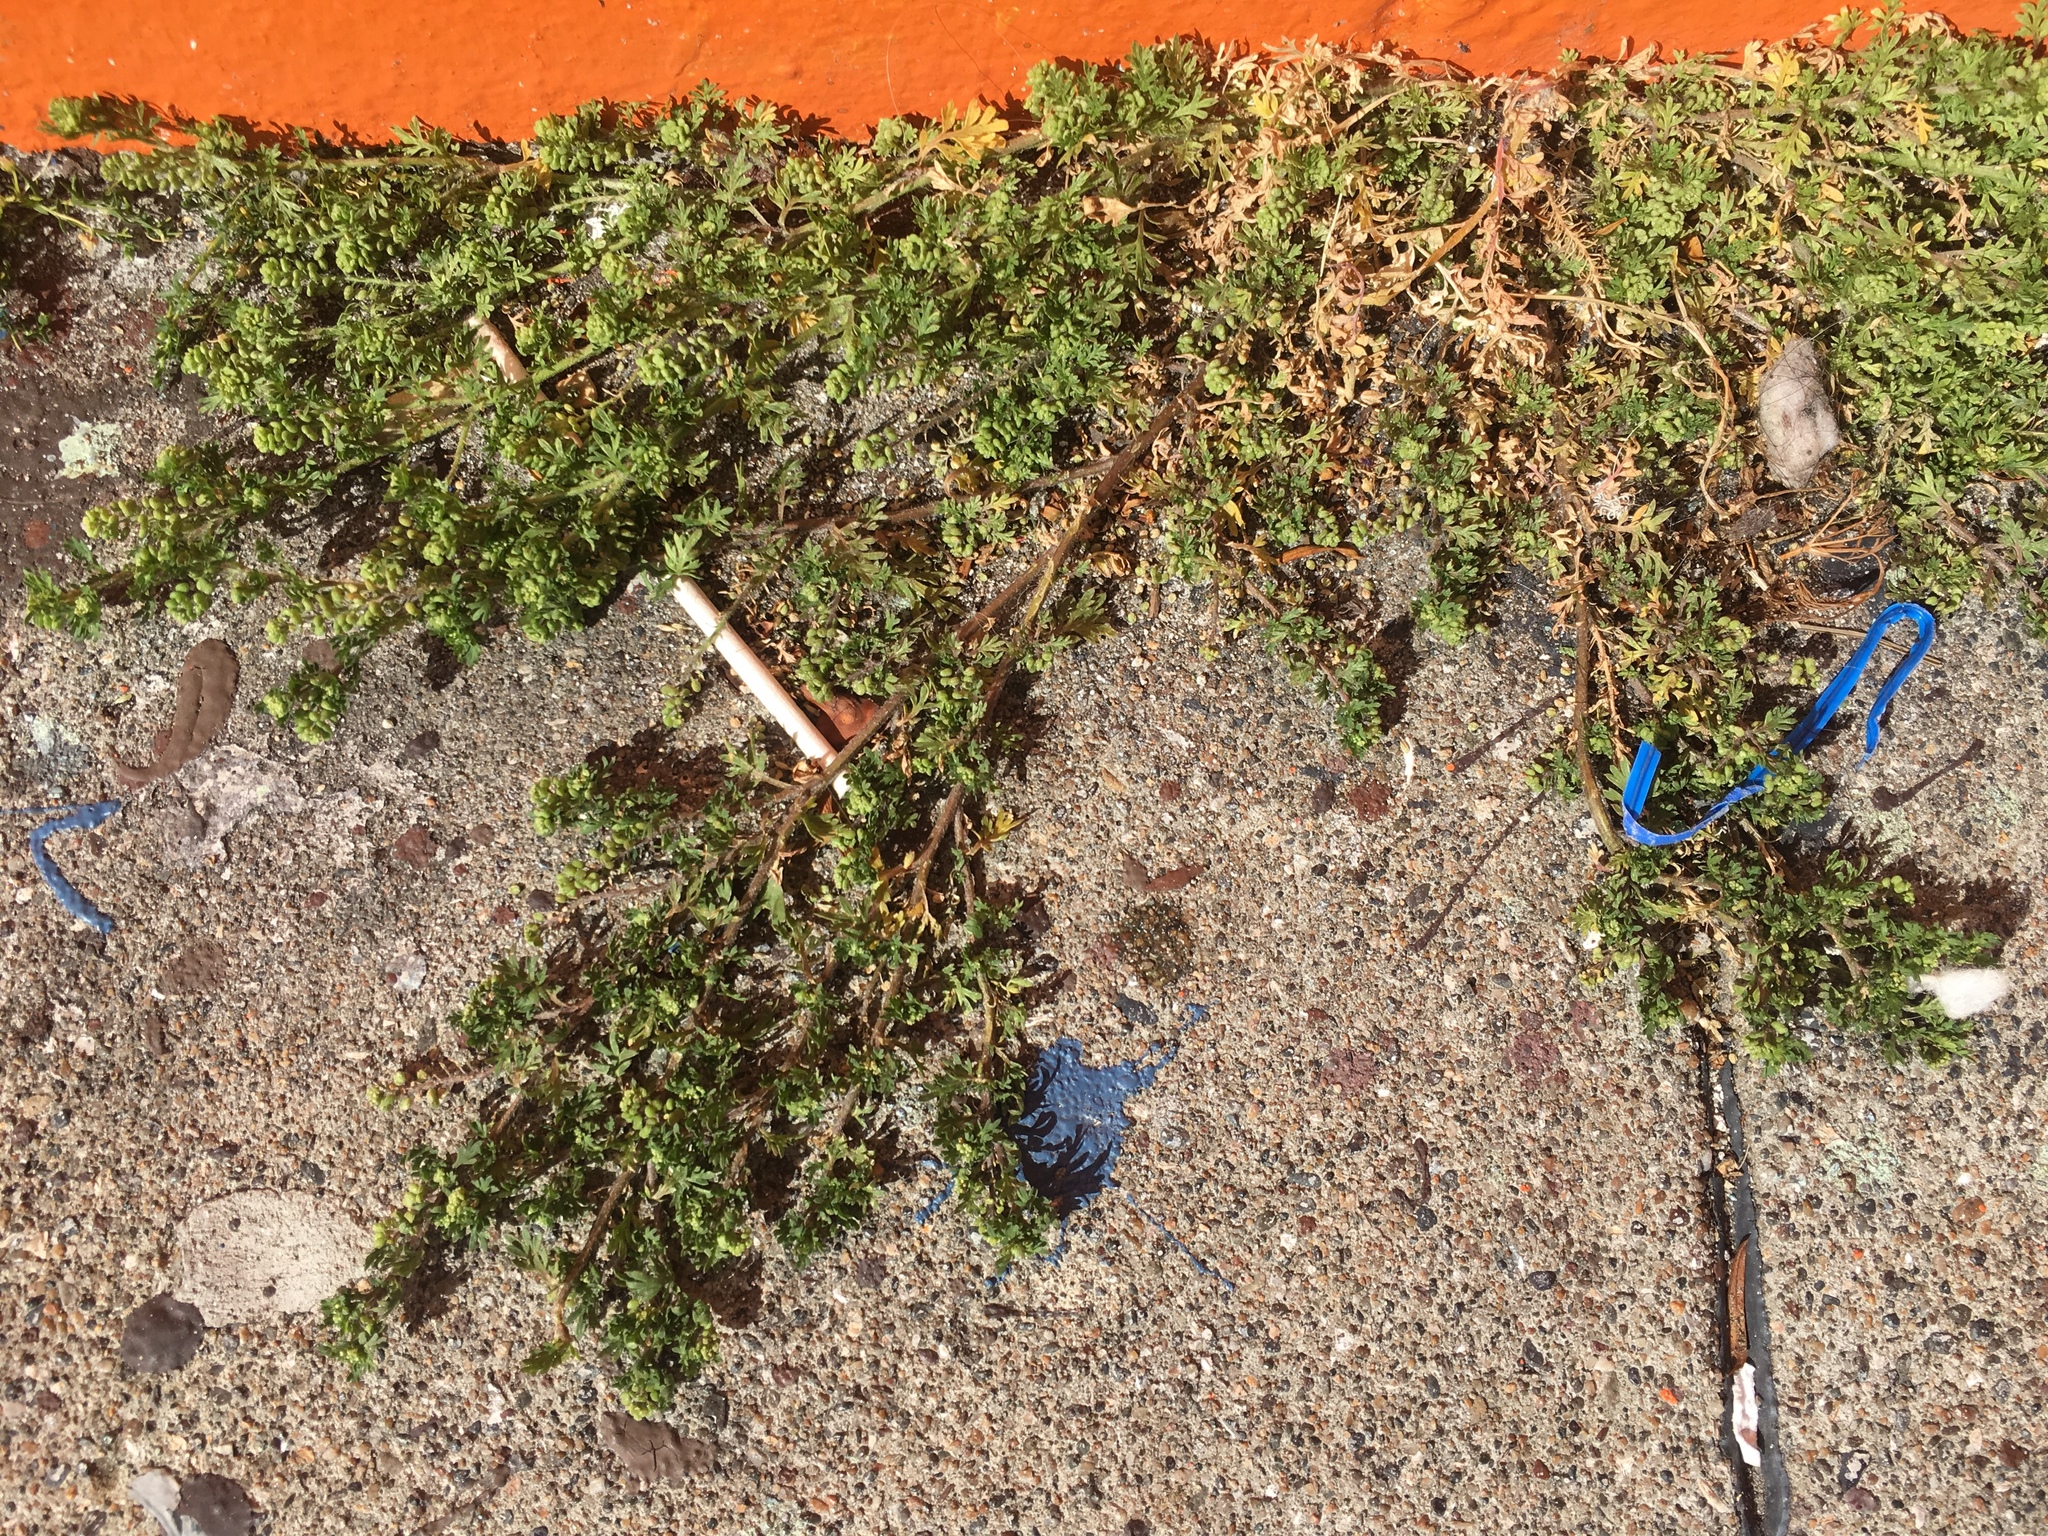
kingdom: Plantae
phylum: Tracheophyta
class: Magnoliopsida
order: Brassicales
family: Brassicaceae
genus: Lepidium
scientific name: Lepidium didymum
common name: Lesser swinecress
